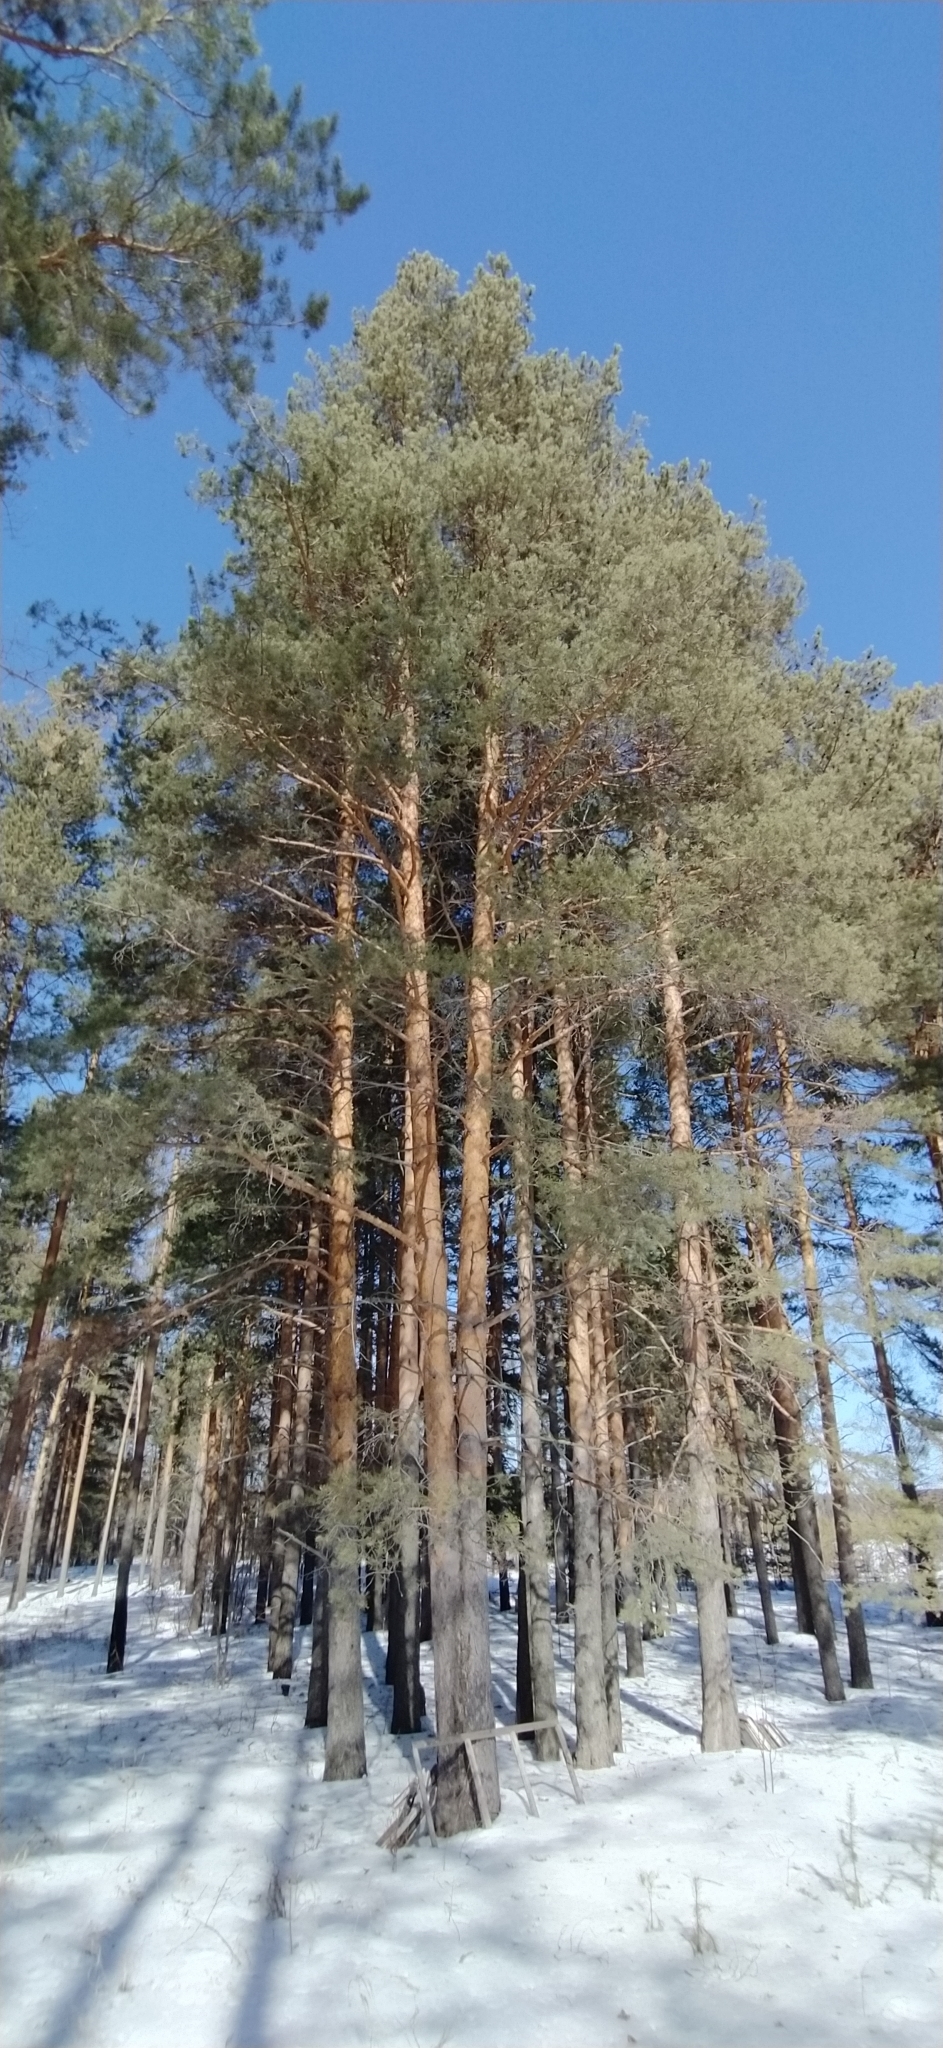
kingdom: Plantae
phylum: Tracheophyta
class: Pinopsida
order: Pinales
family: Pinaceae
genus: Pinus
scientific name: Pinus sylvestris
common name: Scots pine
